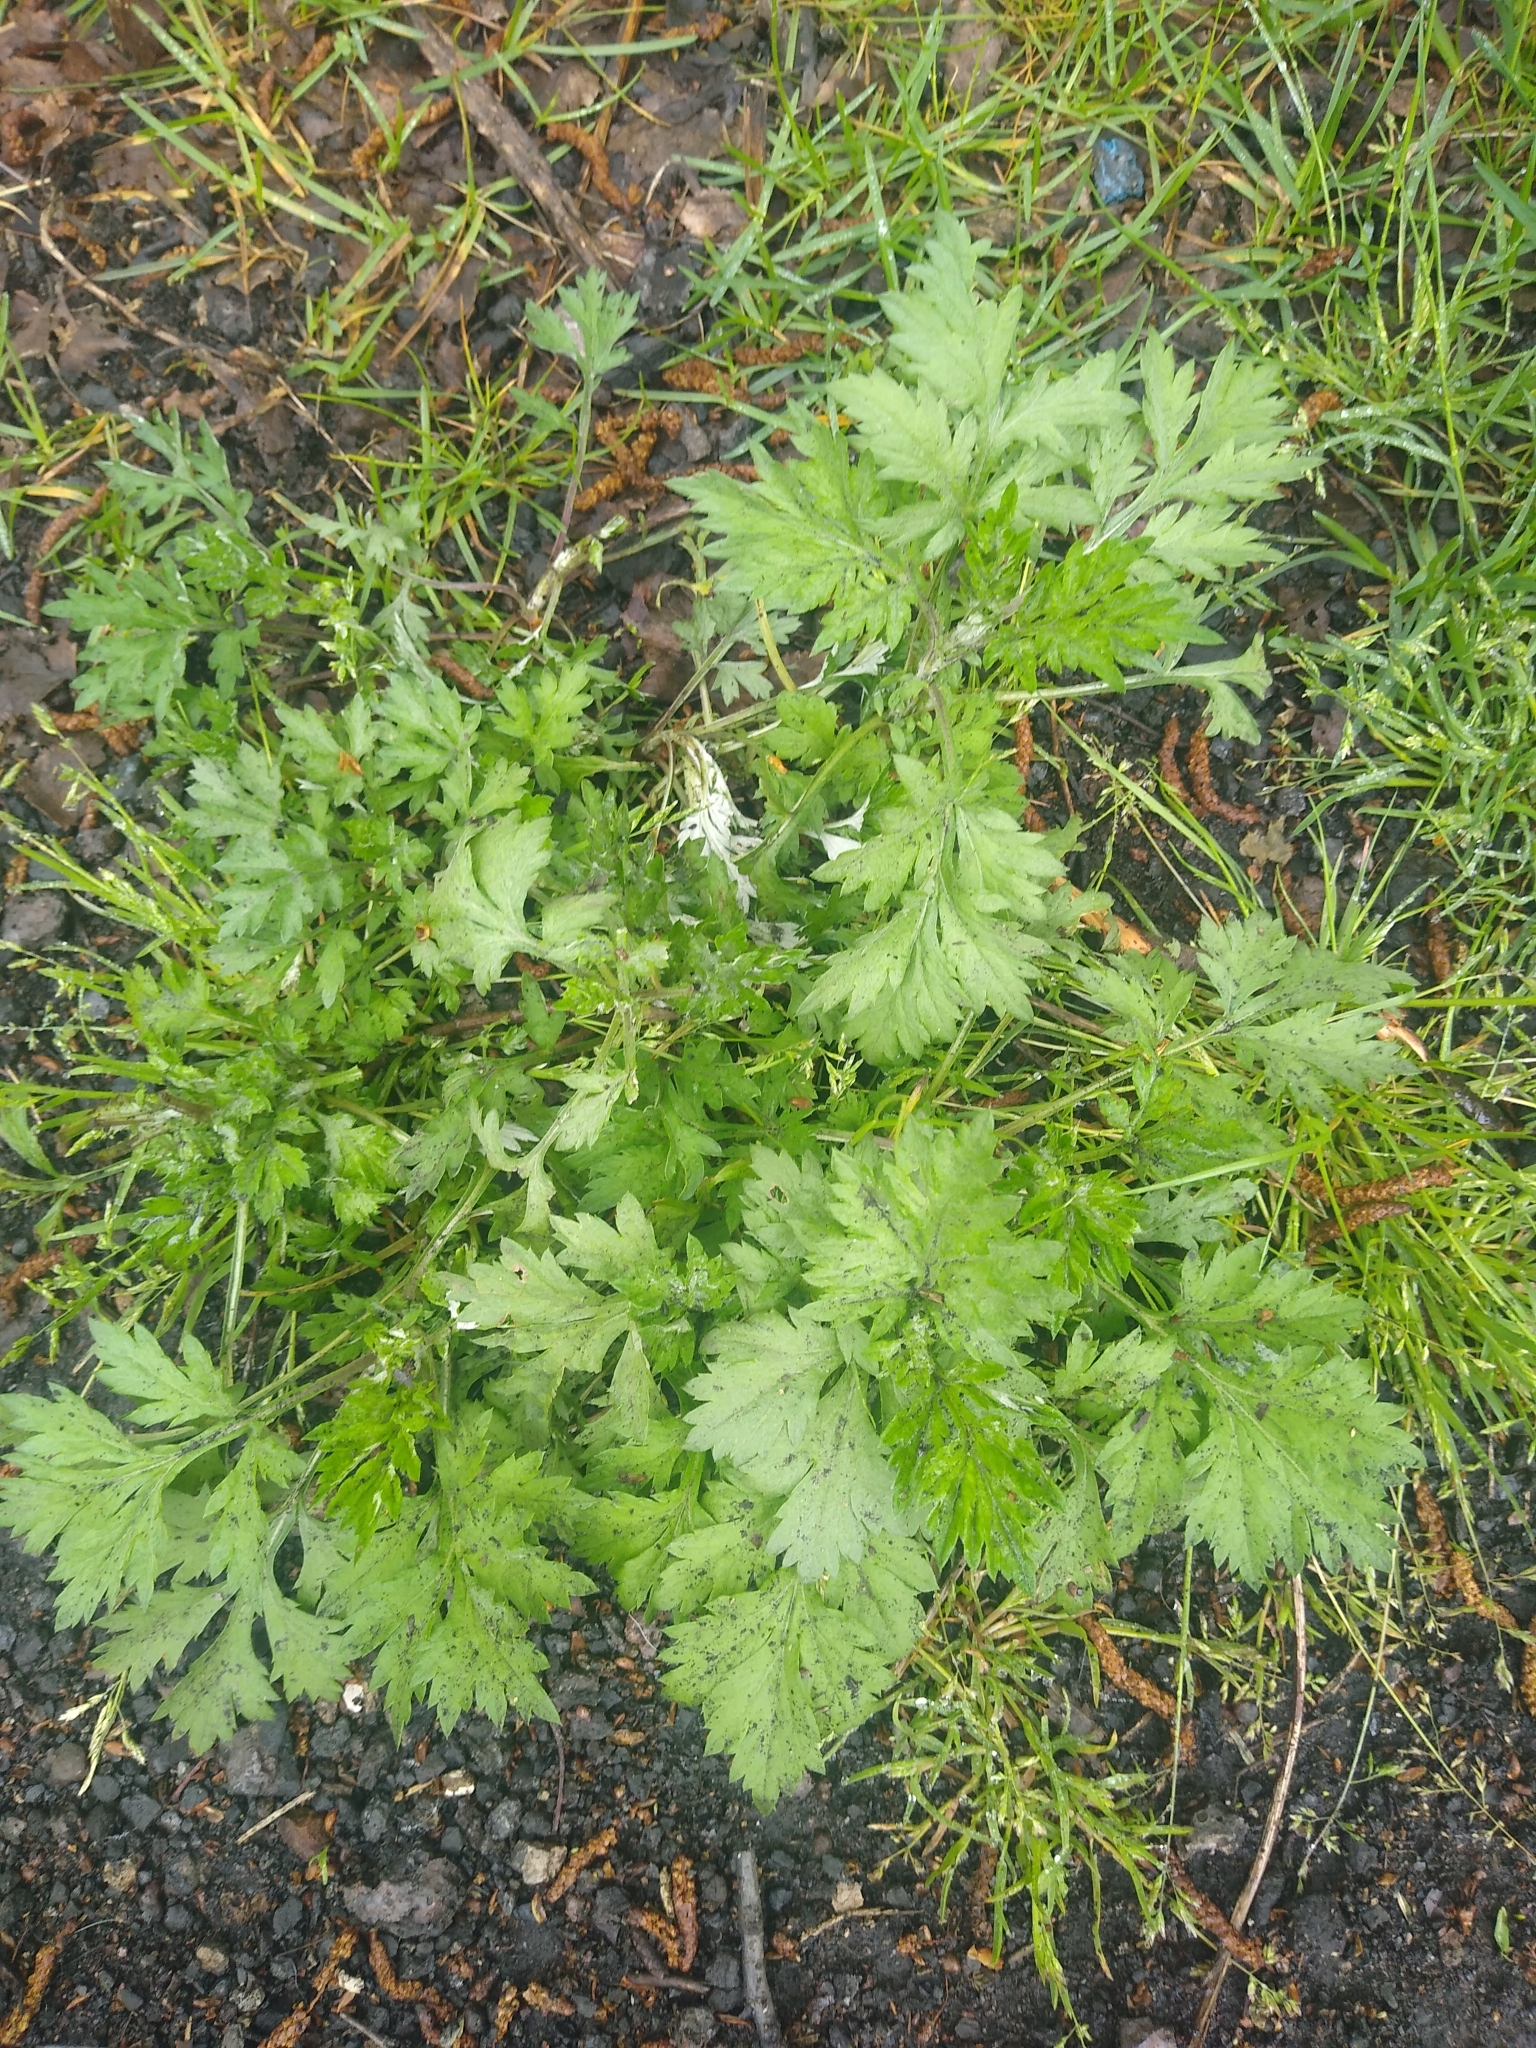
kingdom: Plantae
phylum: Tracheophyta
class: Magnoliopsida
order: Asterales
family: Asteraceae
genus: Artemisia
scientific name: Artemisia vulgaris
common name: Mugwort
